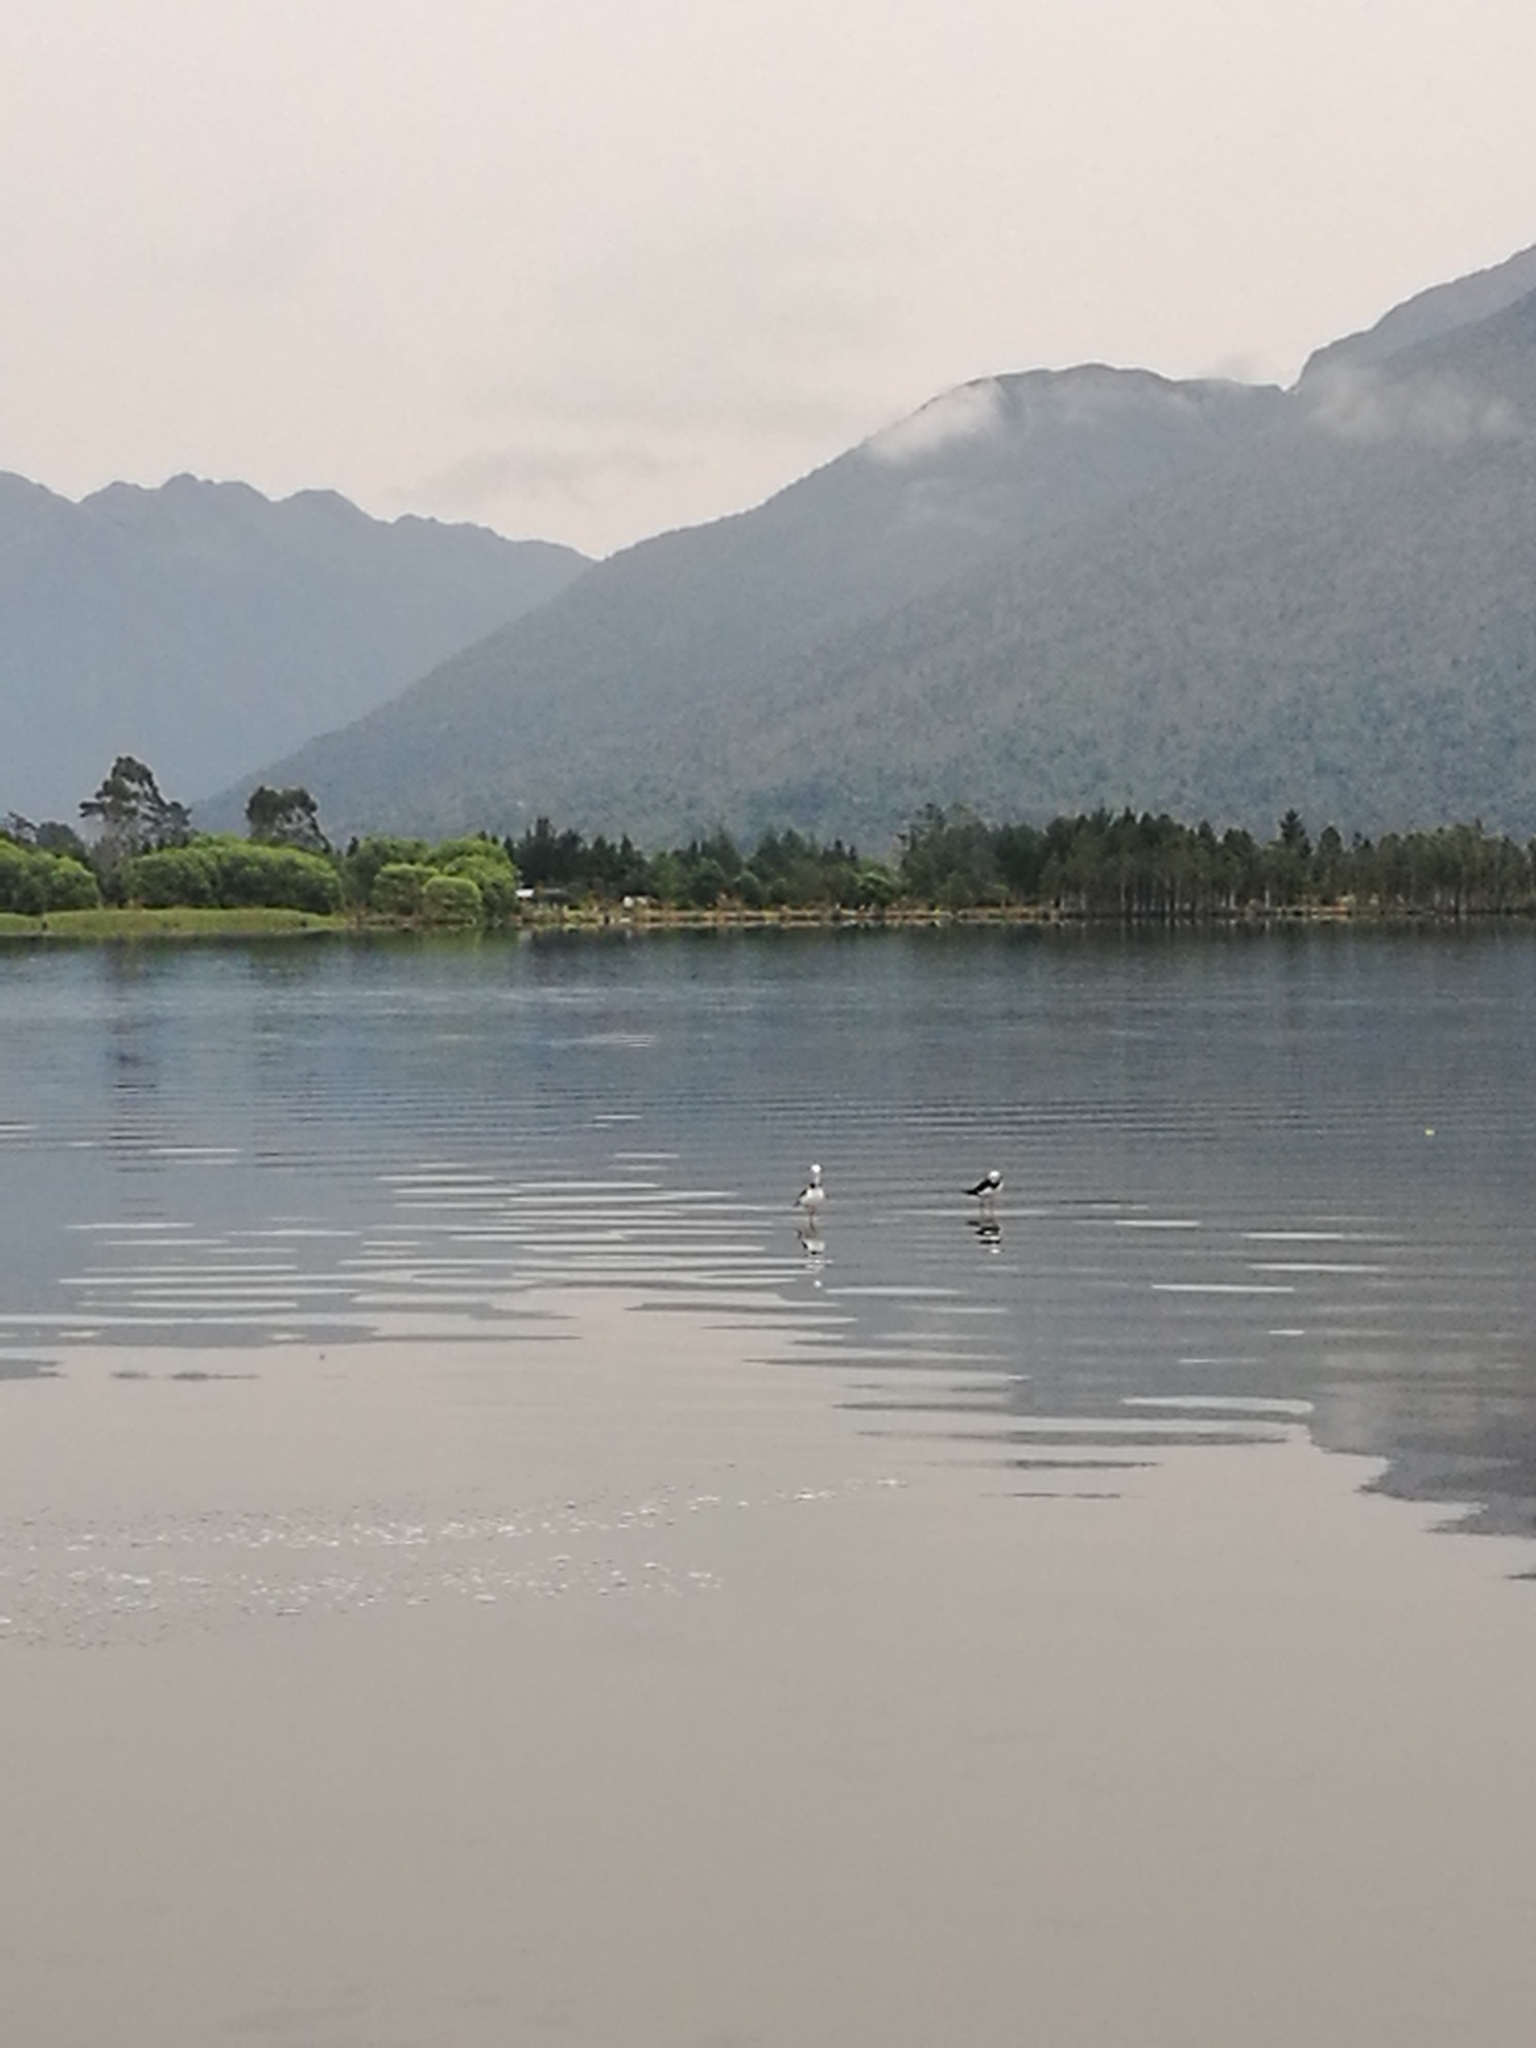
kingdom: Animalia
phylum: Chordata
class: Aves
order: Charadriiformes
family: Recurvirostridae
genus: Himantopus
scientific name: Himantopus leucocephalus
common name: White-headed stilt
